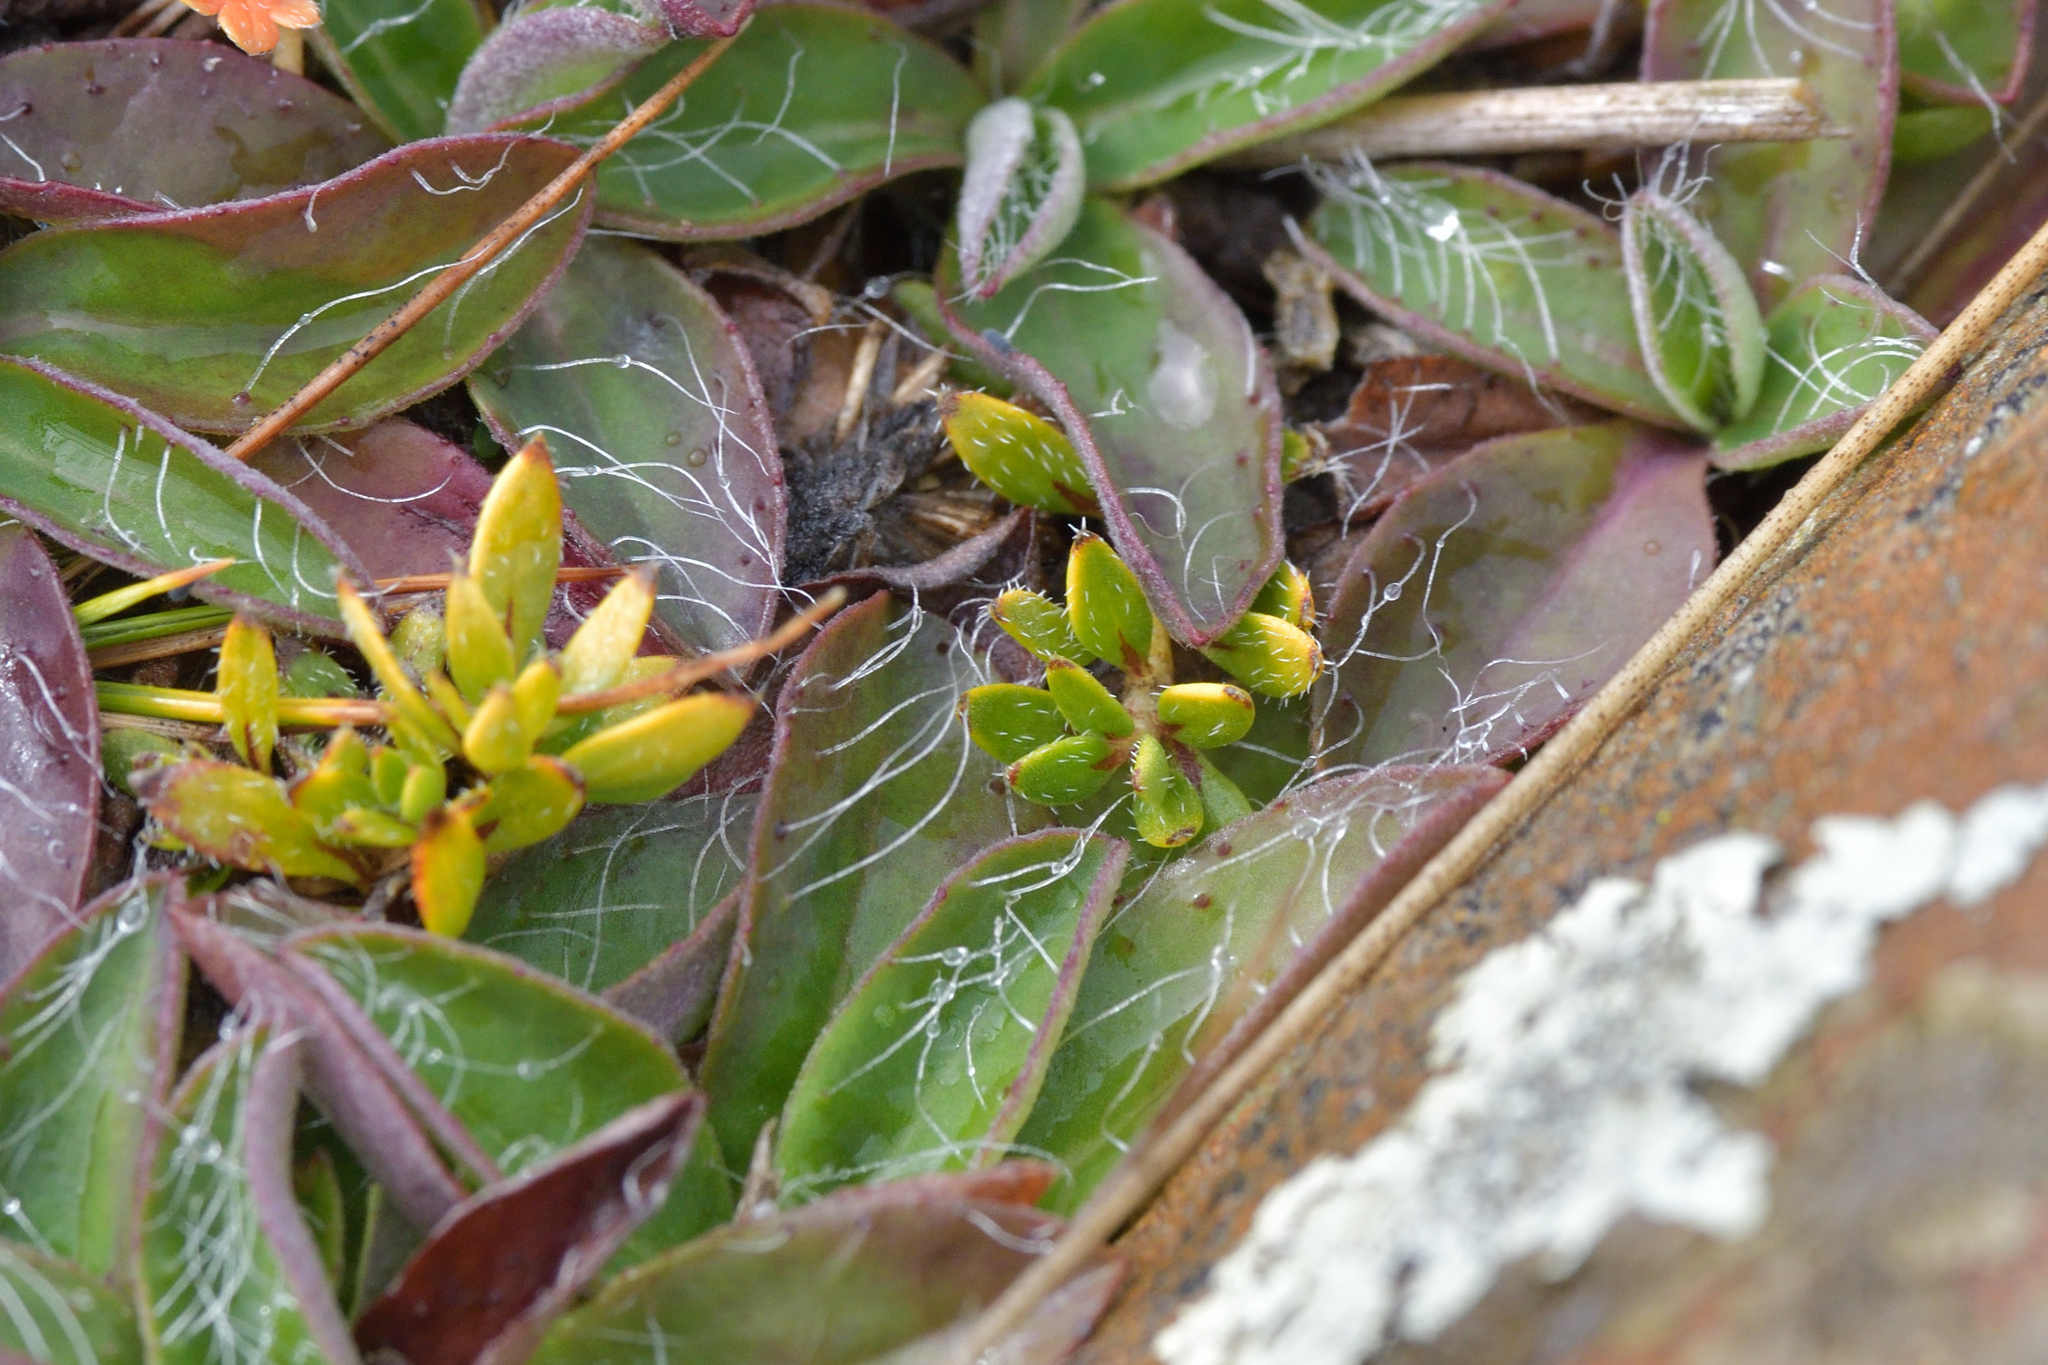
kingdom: Plantae
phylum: Tracheophyta
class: Magnoliopsida
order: Gentianales
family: Rubiaceae
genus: Coprosma
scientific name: Coprosma petriei
